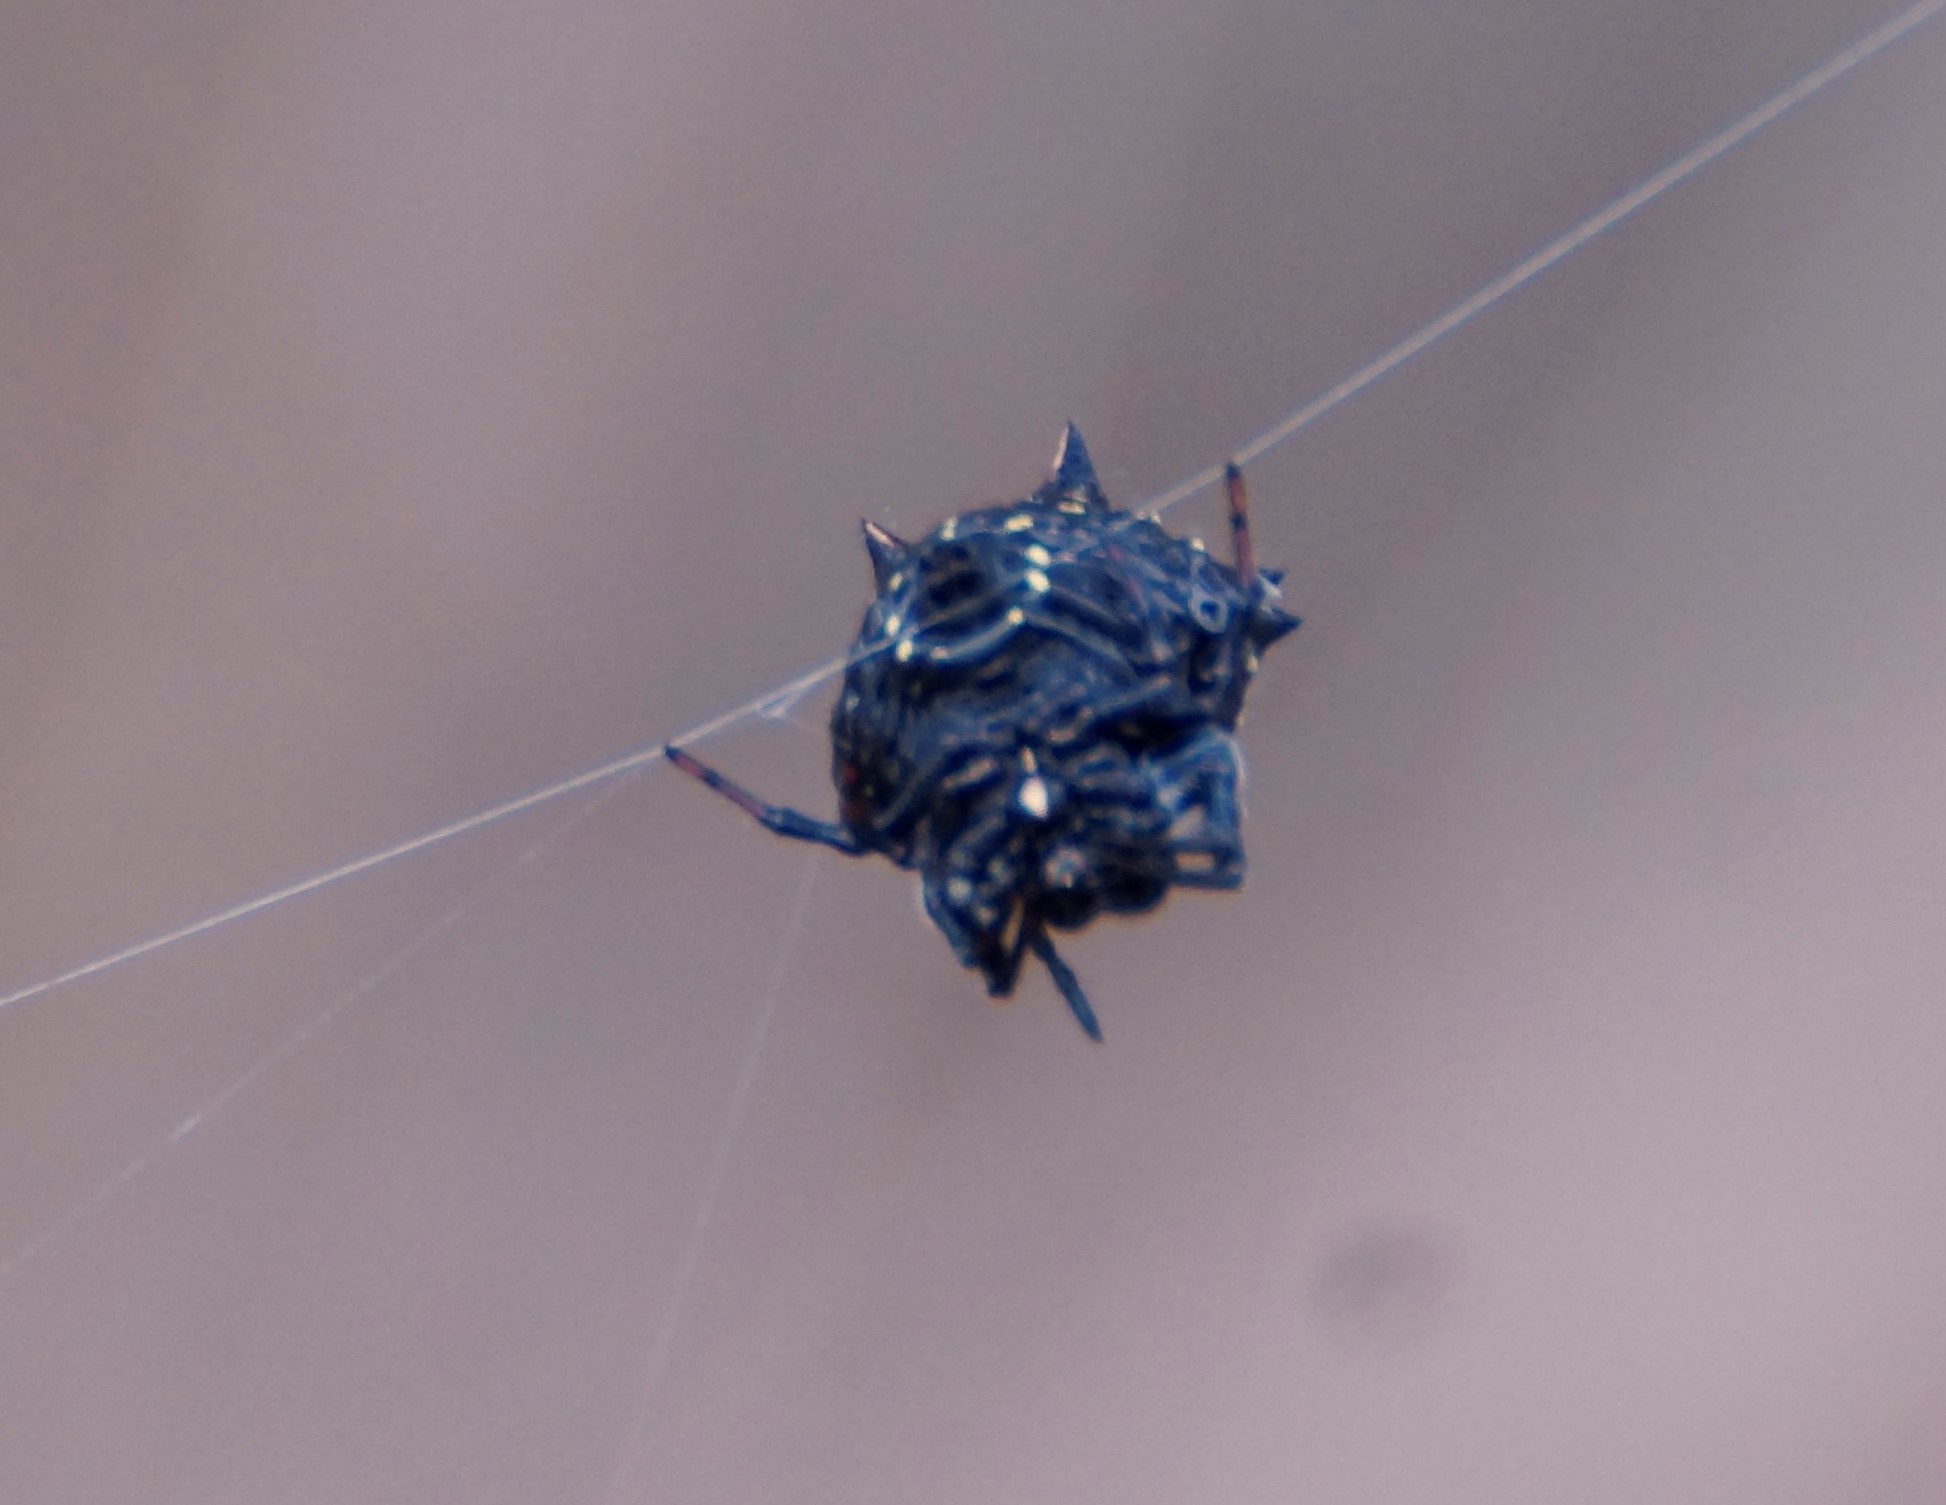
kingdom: Animalia
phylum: Arthropoda
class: Arachnida
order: Araneae
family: Araneidae
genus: Austracantha
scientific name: Austracantha minax
